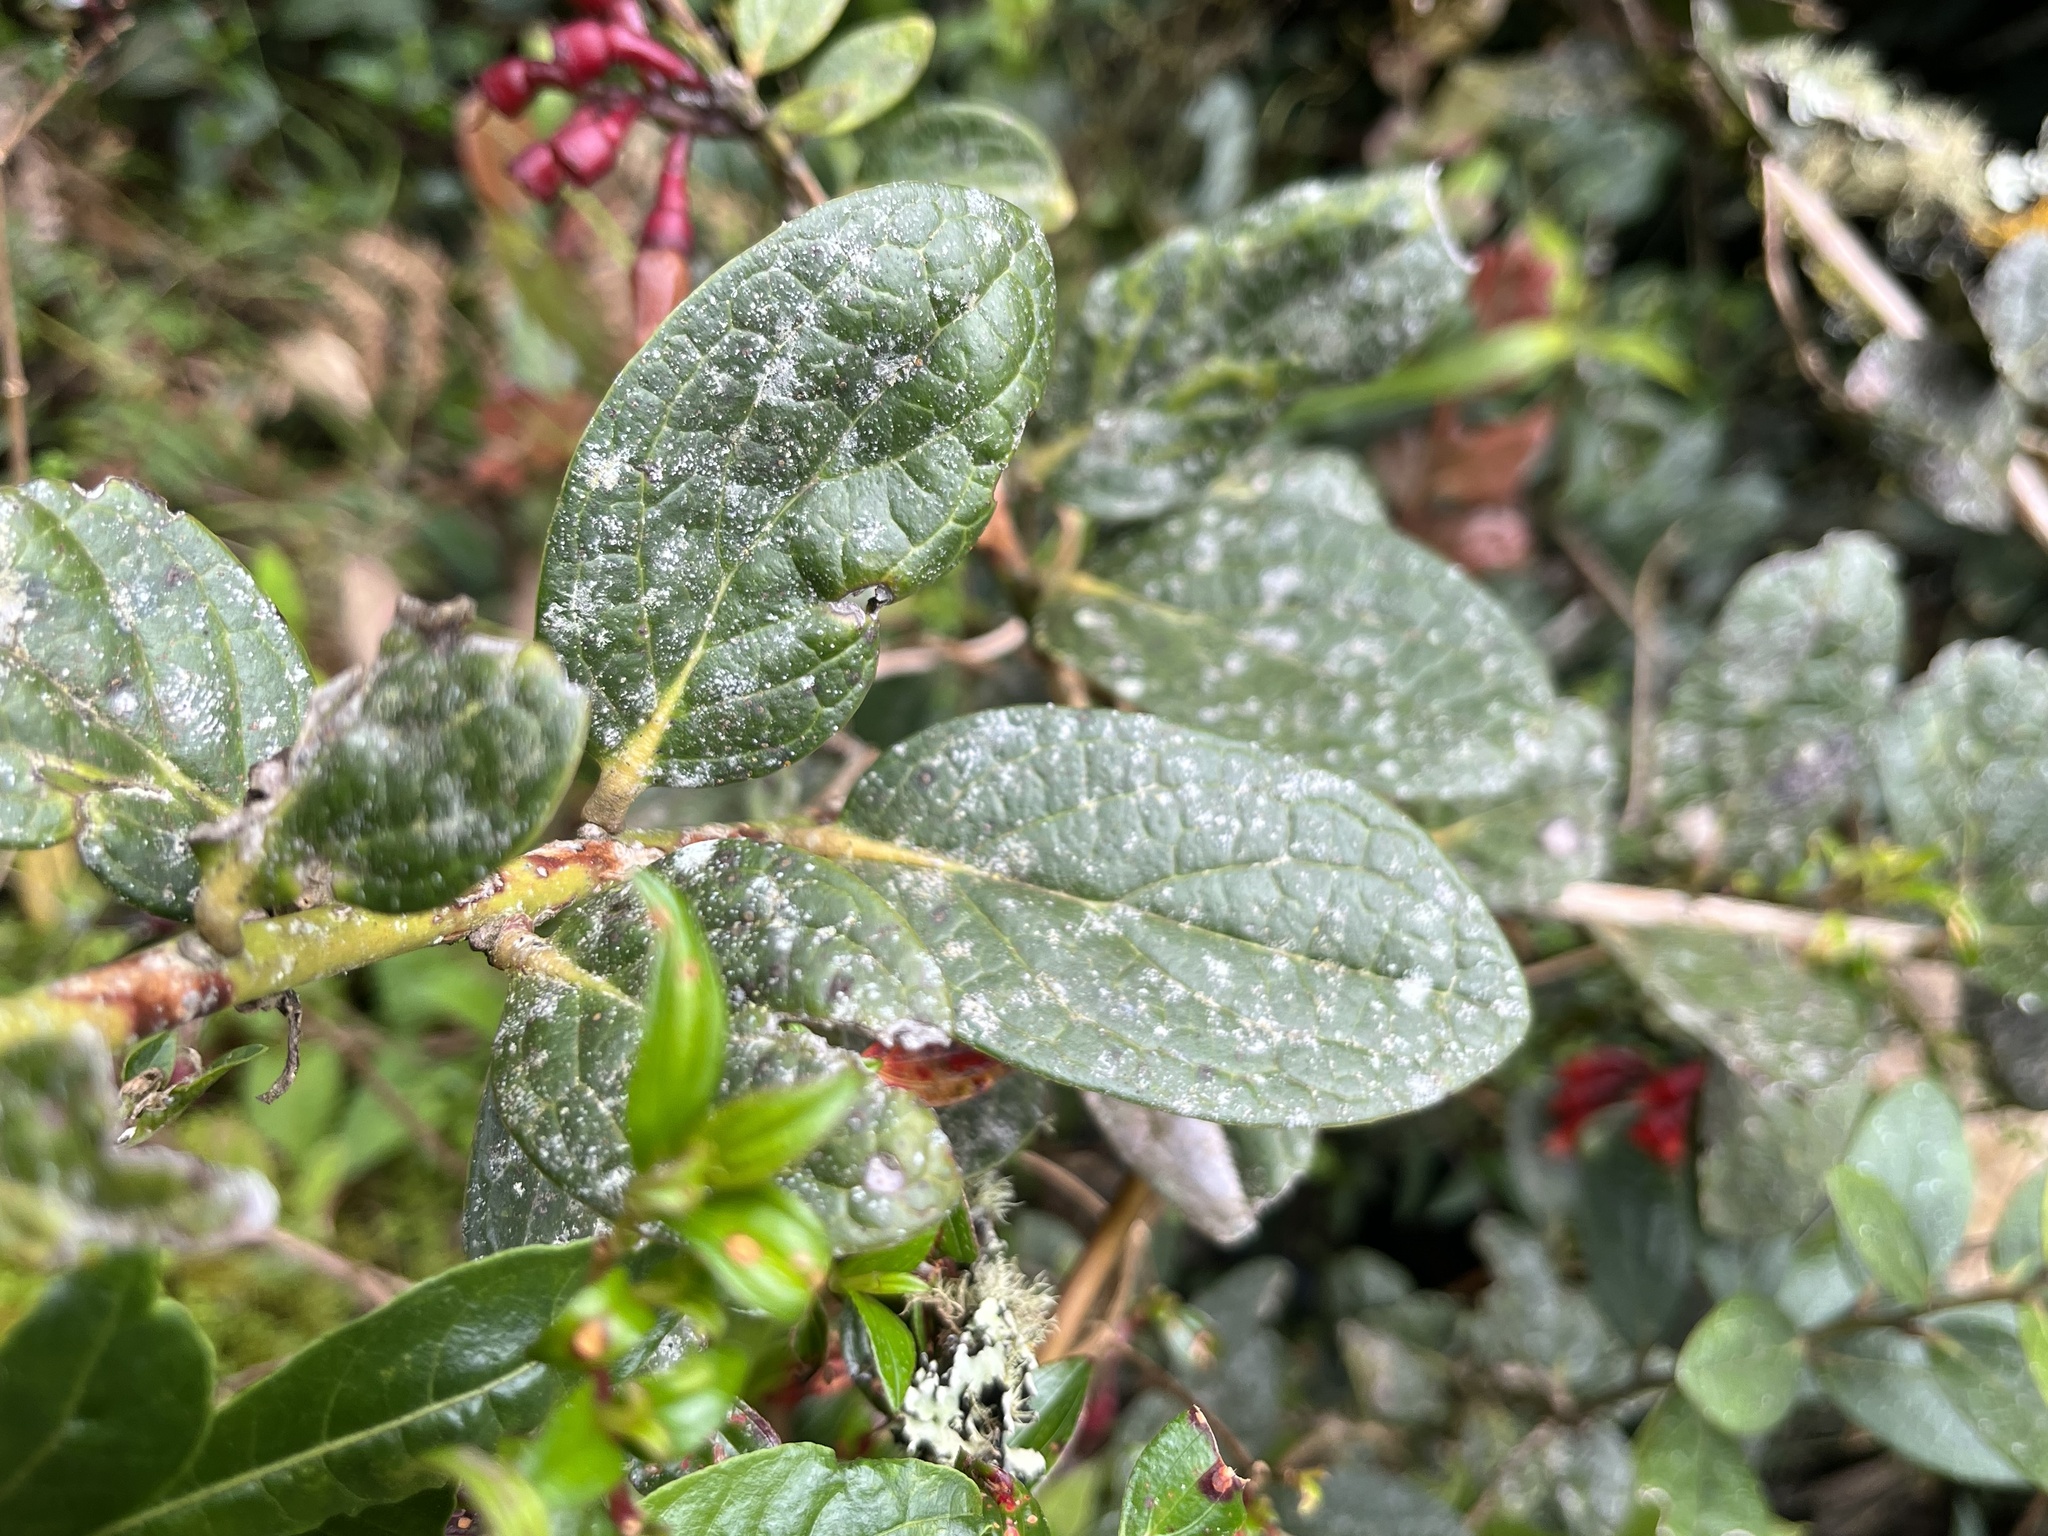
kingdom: Plantae
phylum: Tracheophyta
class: Magnoliopsida
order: Ericales
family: Ericaceae
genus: Macleania
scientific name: Macleania rupestris
